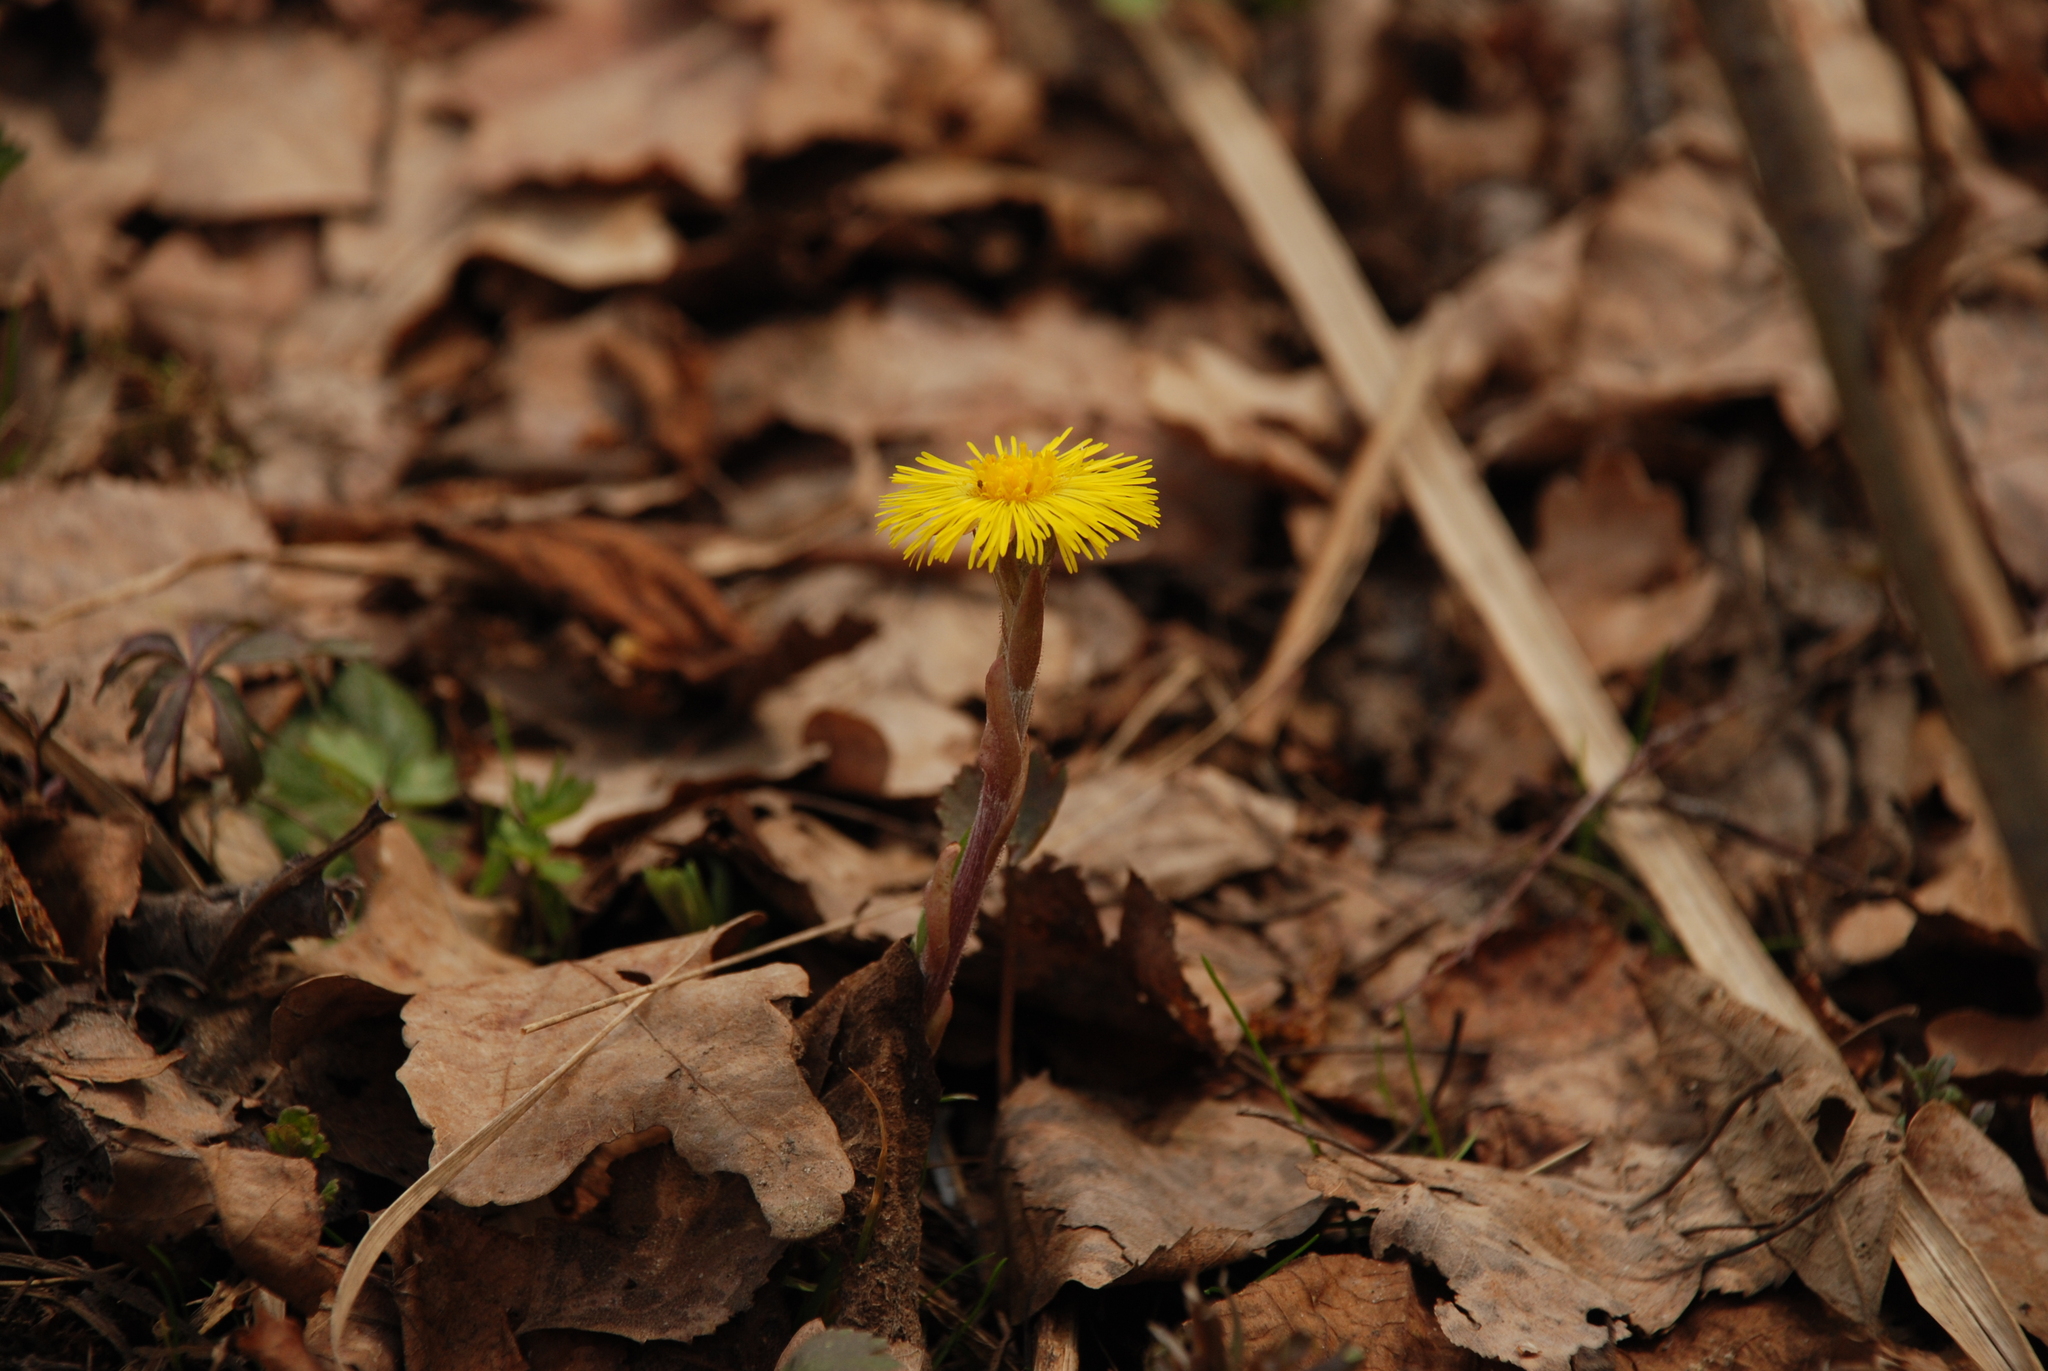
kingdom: Plantae
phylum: Tracheophyta
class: Magnoliopsida
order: Asterales
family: Asteraceae
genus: Tussilago
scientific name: Tussilago farfara
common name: Coltsfoot
